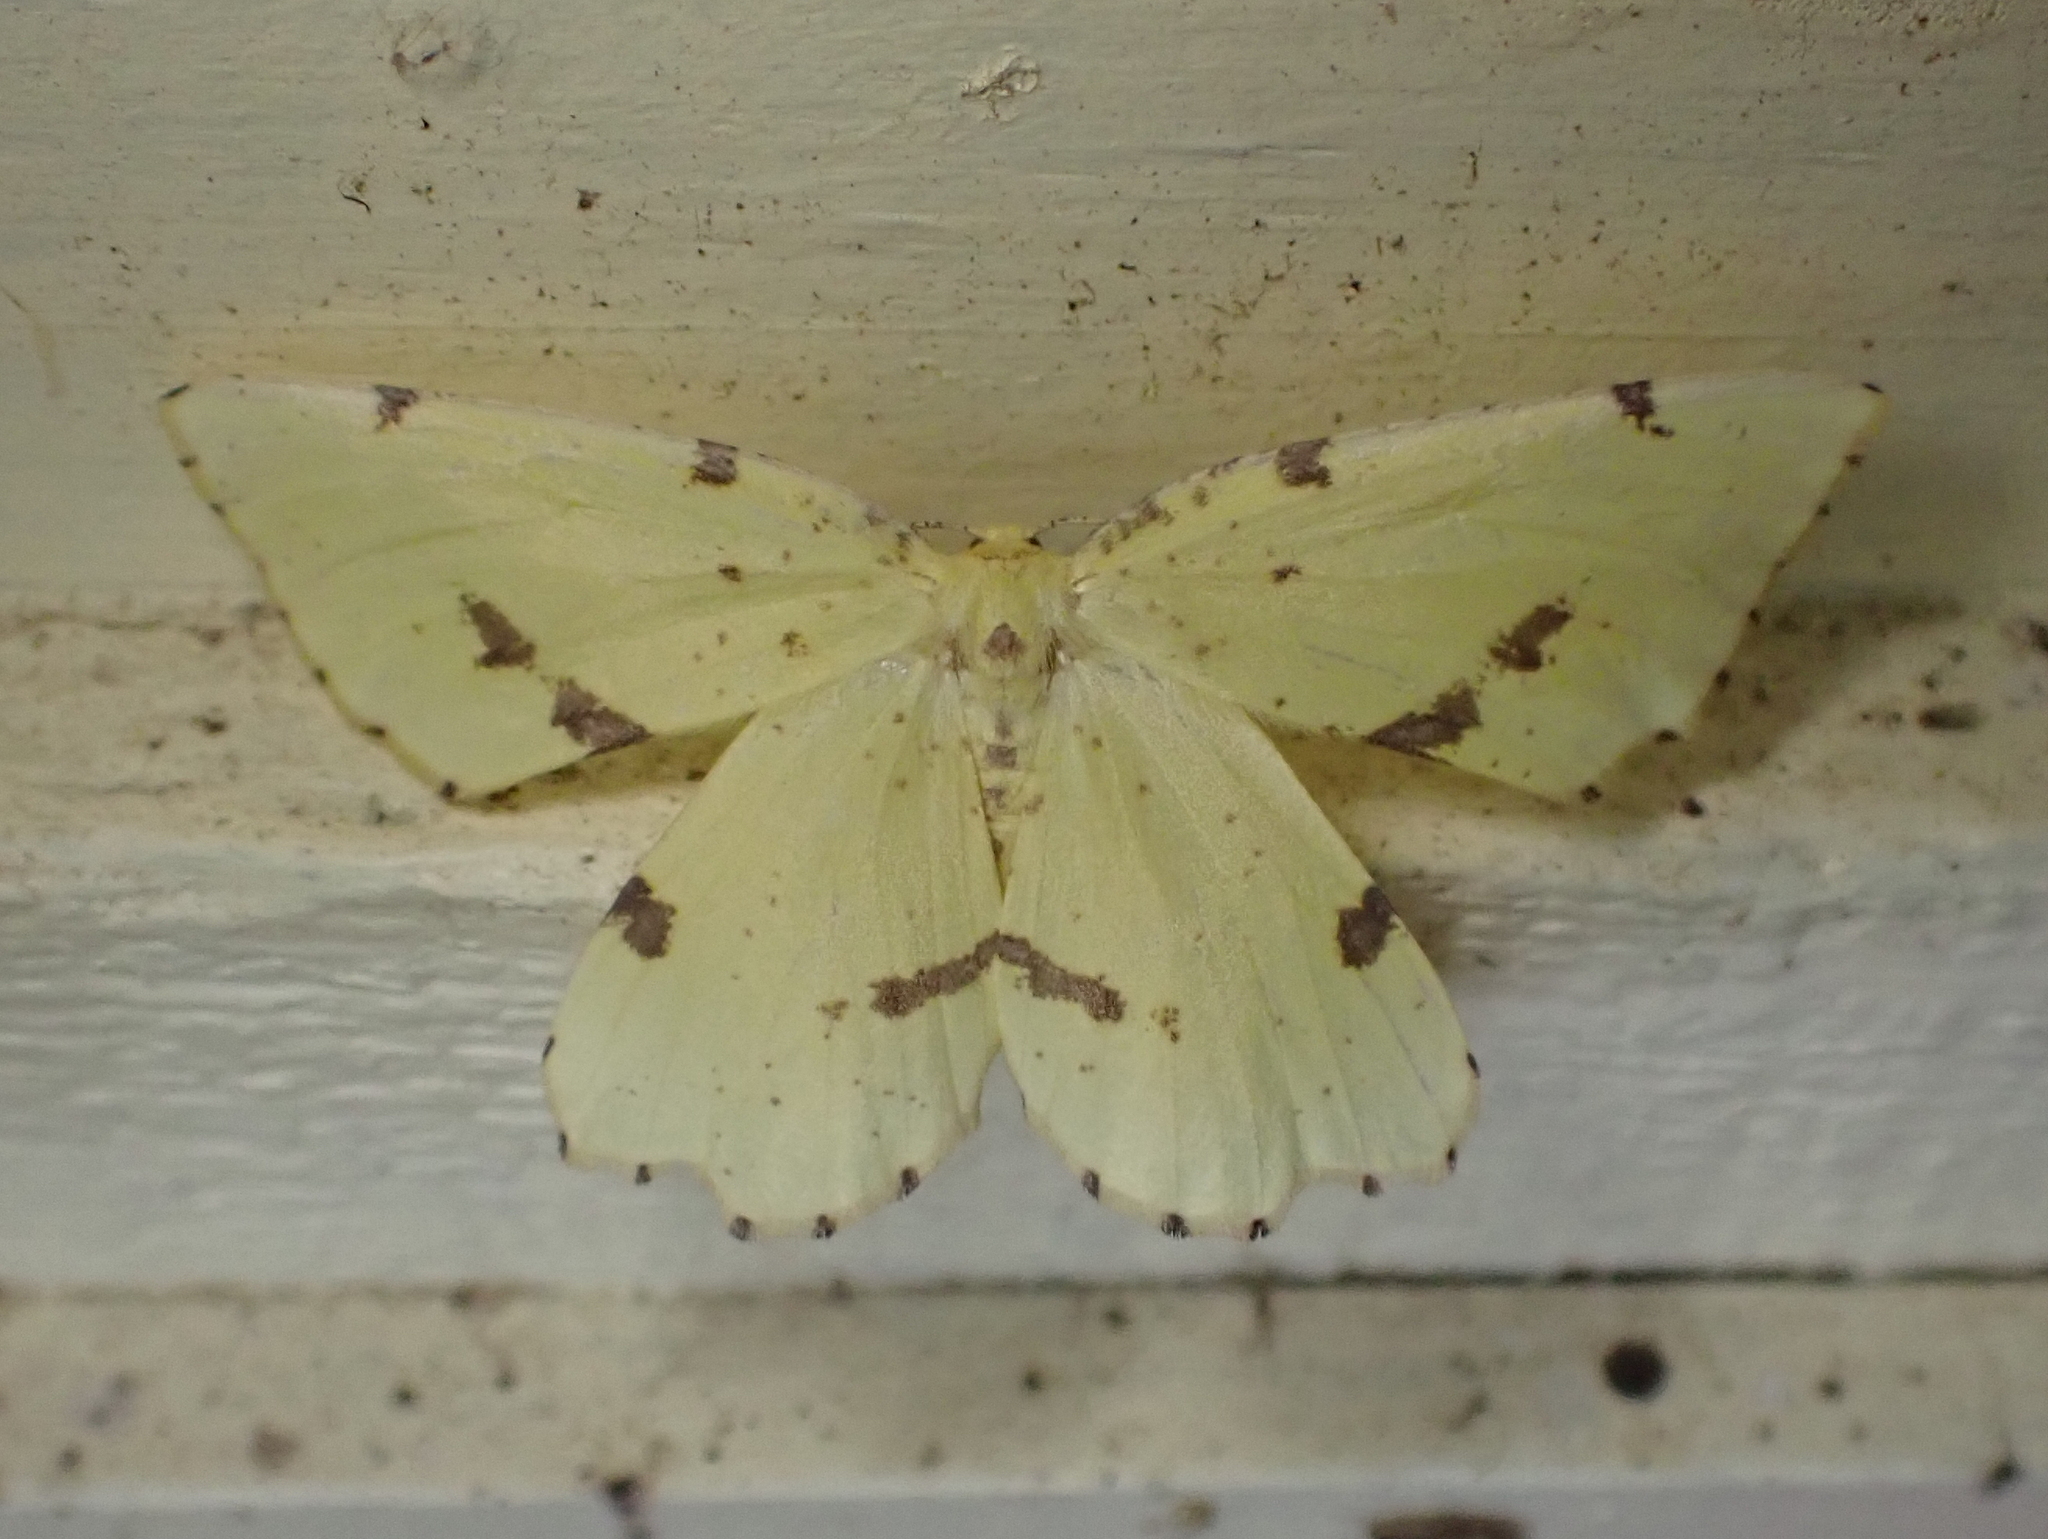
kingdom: Animalia
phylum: Arthropoda
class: Insecta
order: Lepidoptera
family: Geometridae
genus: Xanthotype
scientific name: Xanthotype
